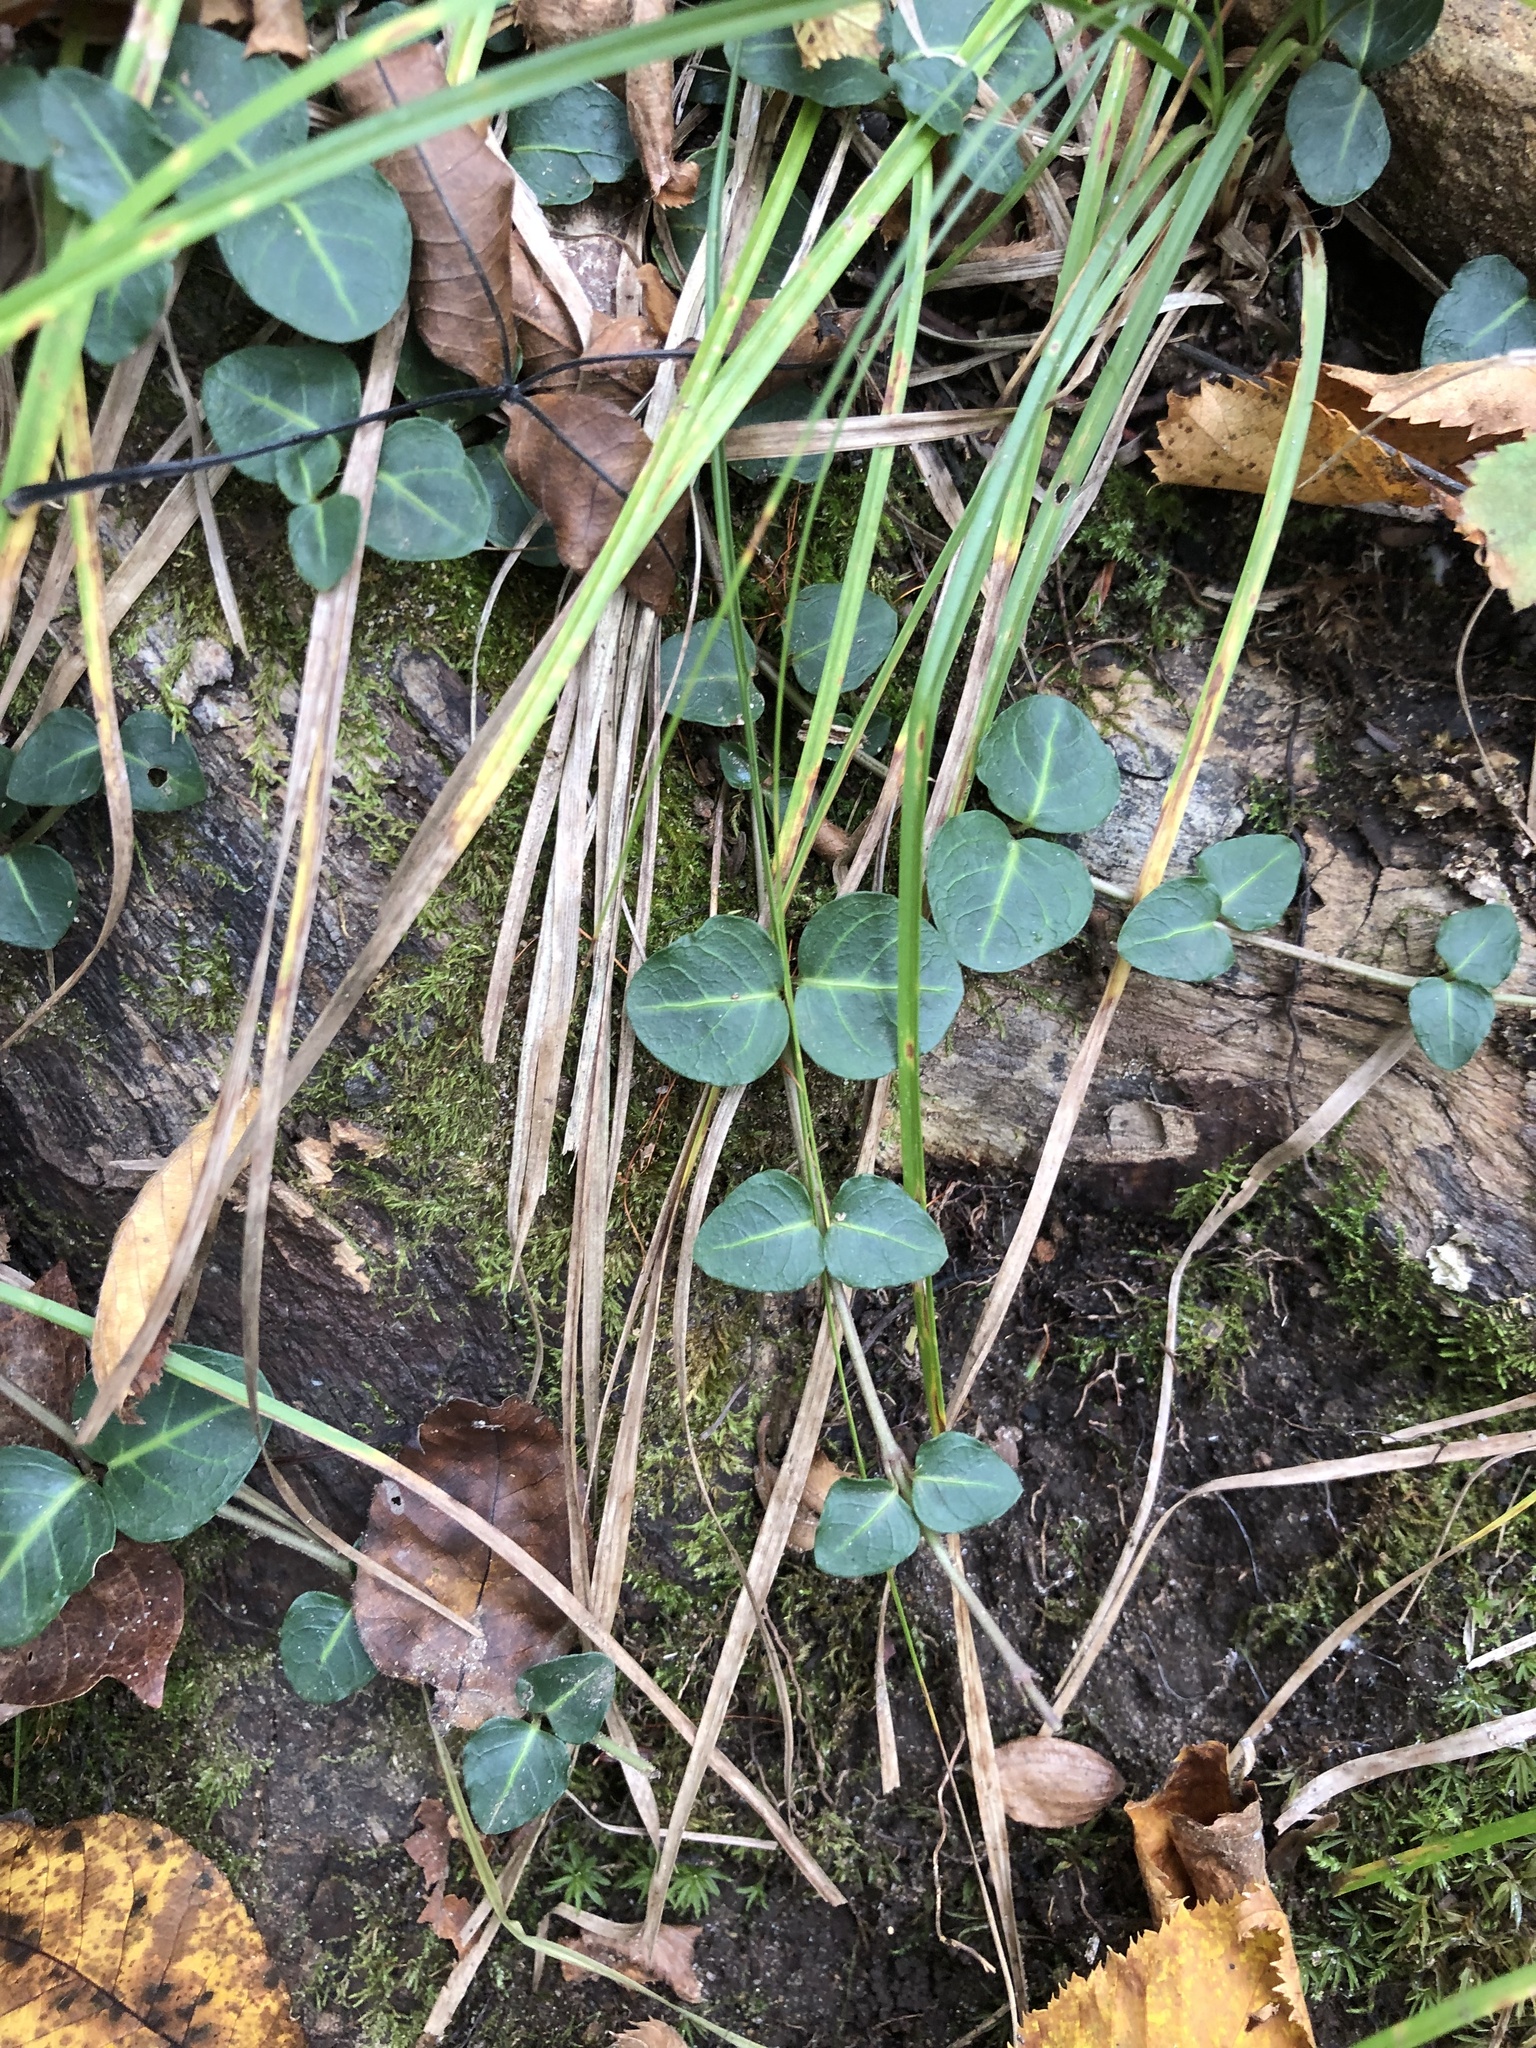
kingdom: Plantae
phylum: Tracheophyta
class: Magnoliopsida
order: Gentianales
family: Rubiaceae
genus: Mitchella
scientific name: Mitchella repens
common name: Partridge-berry
